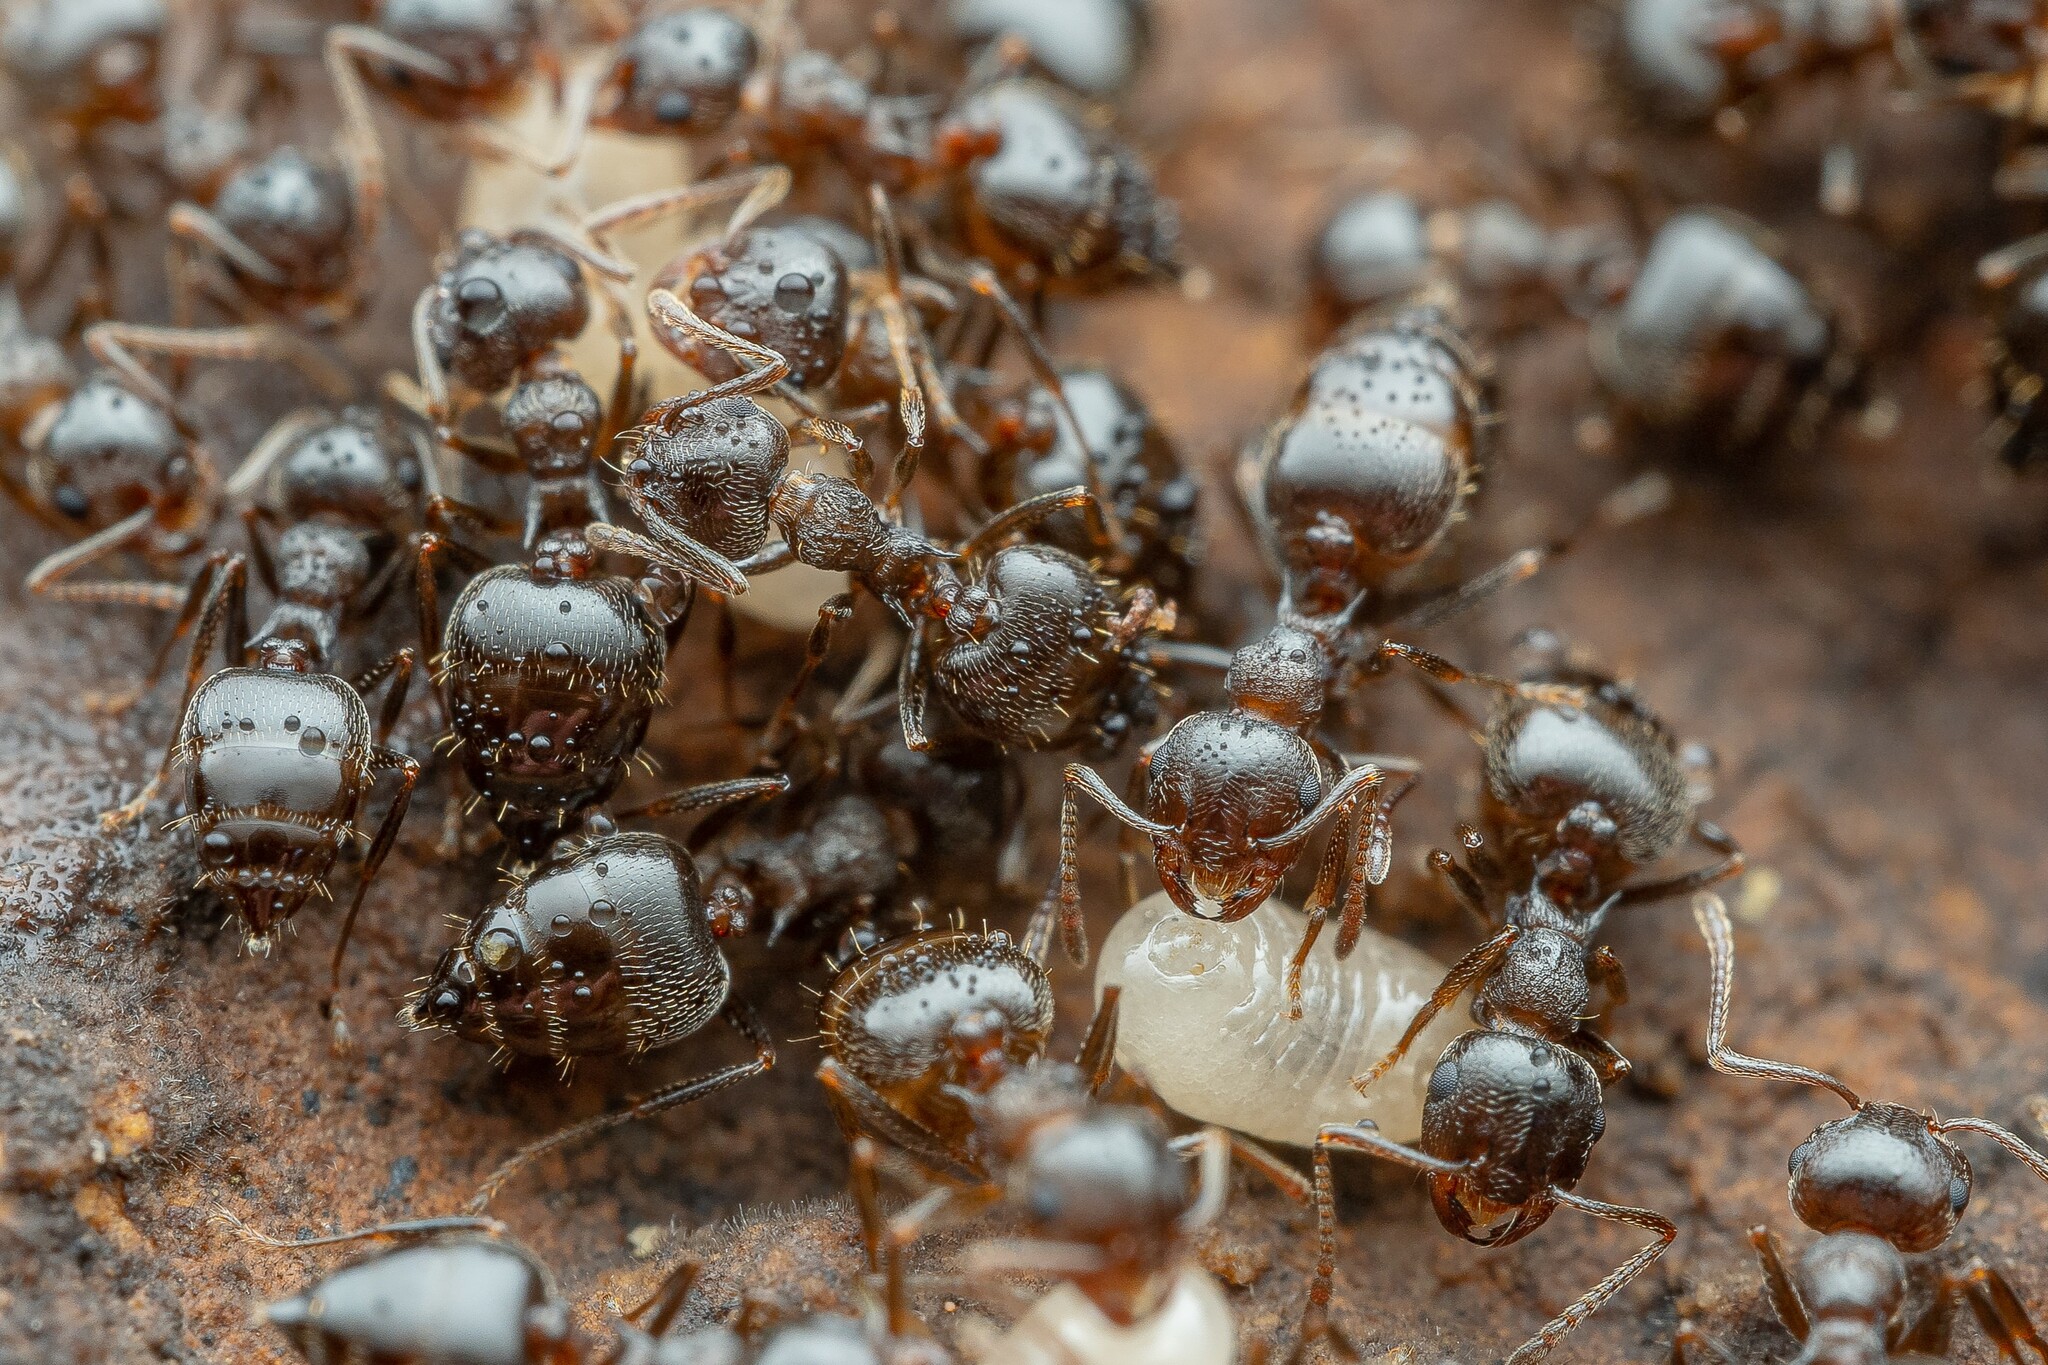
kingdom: Animalia
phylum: Arthropoda
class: Insecta
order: Hymenoptera
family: Formicidae
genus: Crematogaster
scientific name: Crematogaster
